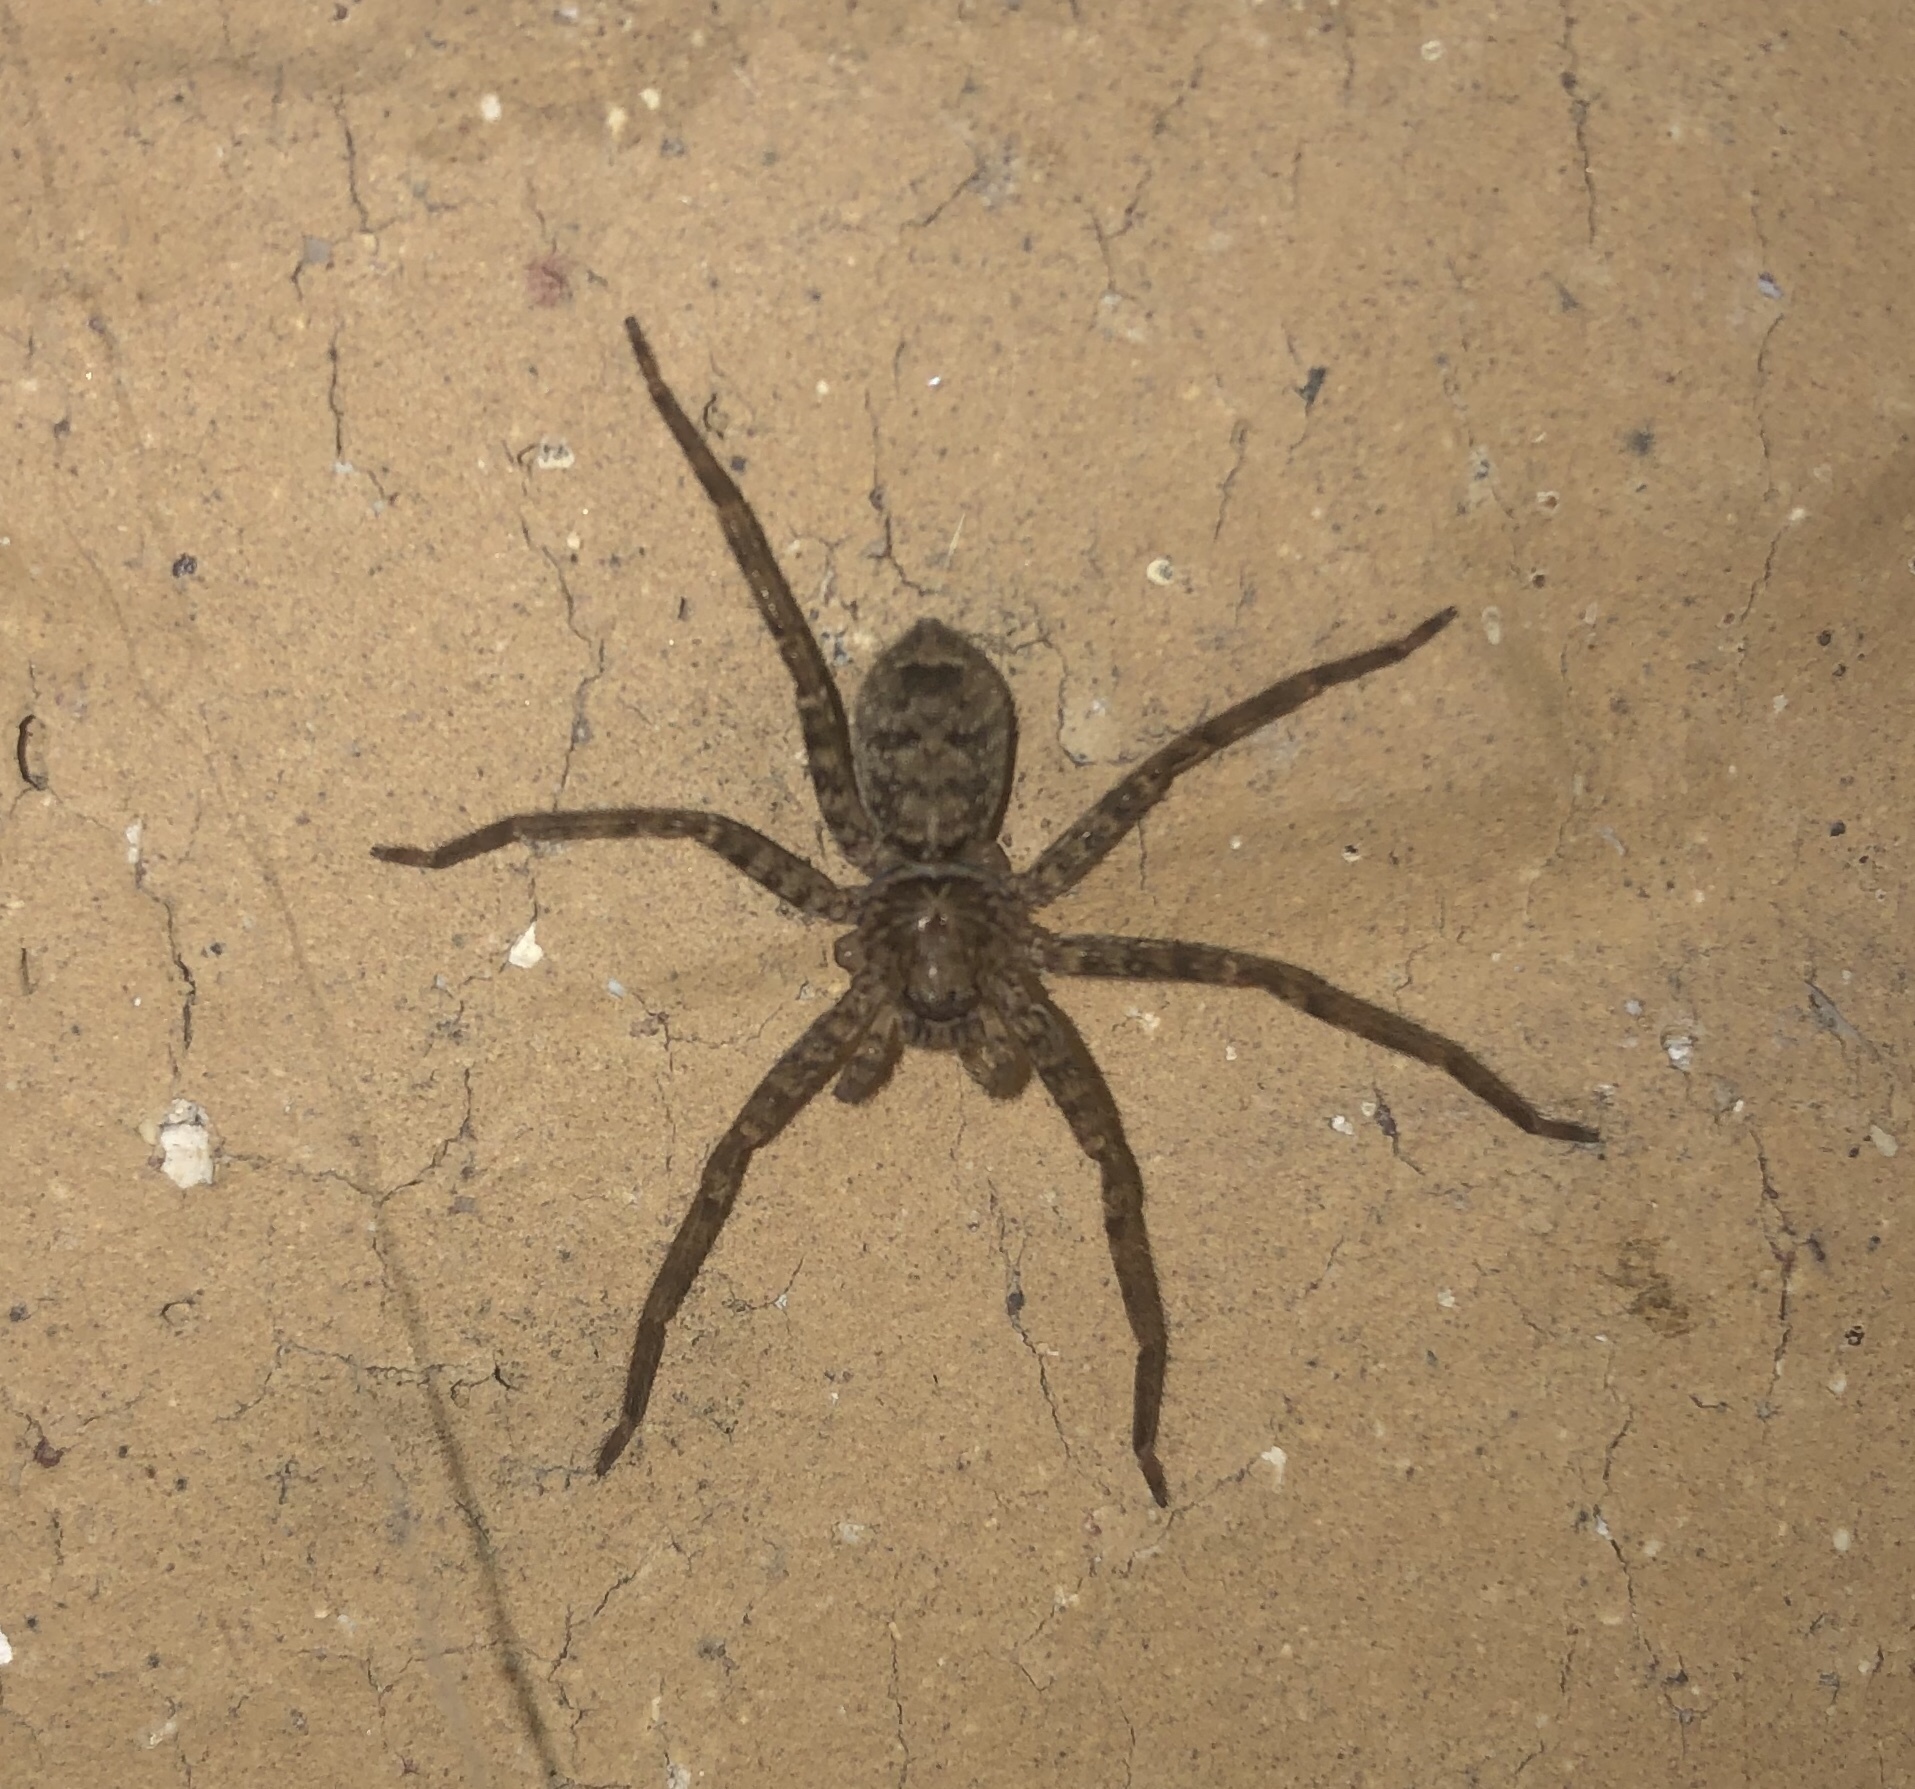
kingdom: Animalia
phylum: Arthropoda
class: Arachnida
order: Araneae
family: Sparassidae
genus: Heteropoda
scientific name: Heteropoda jugulans
